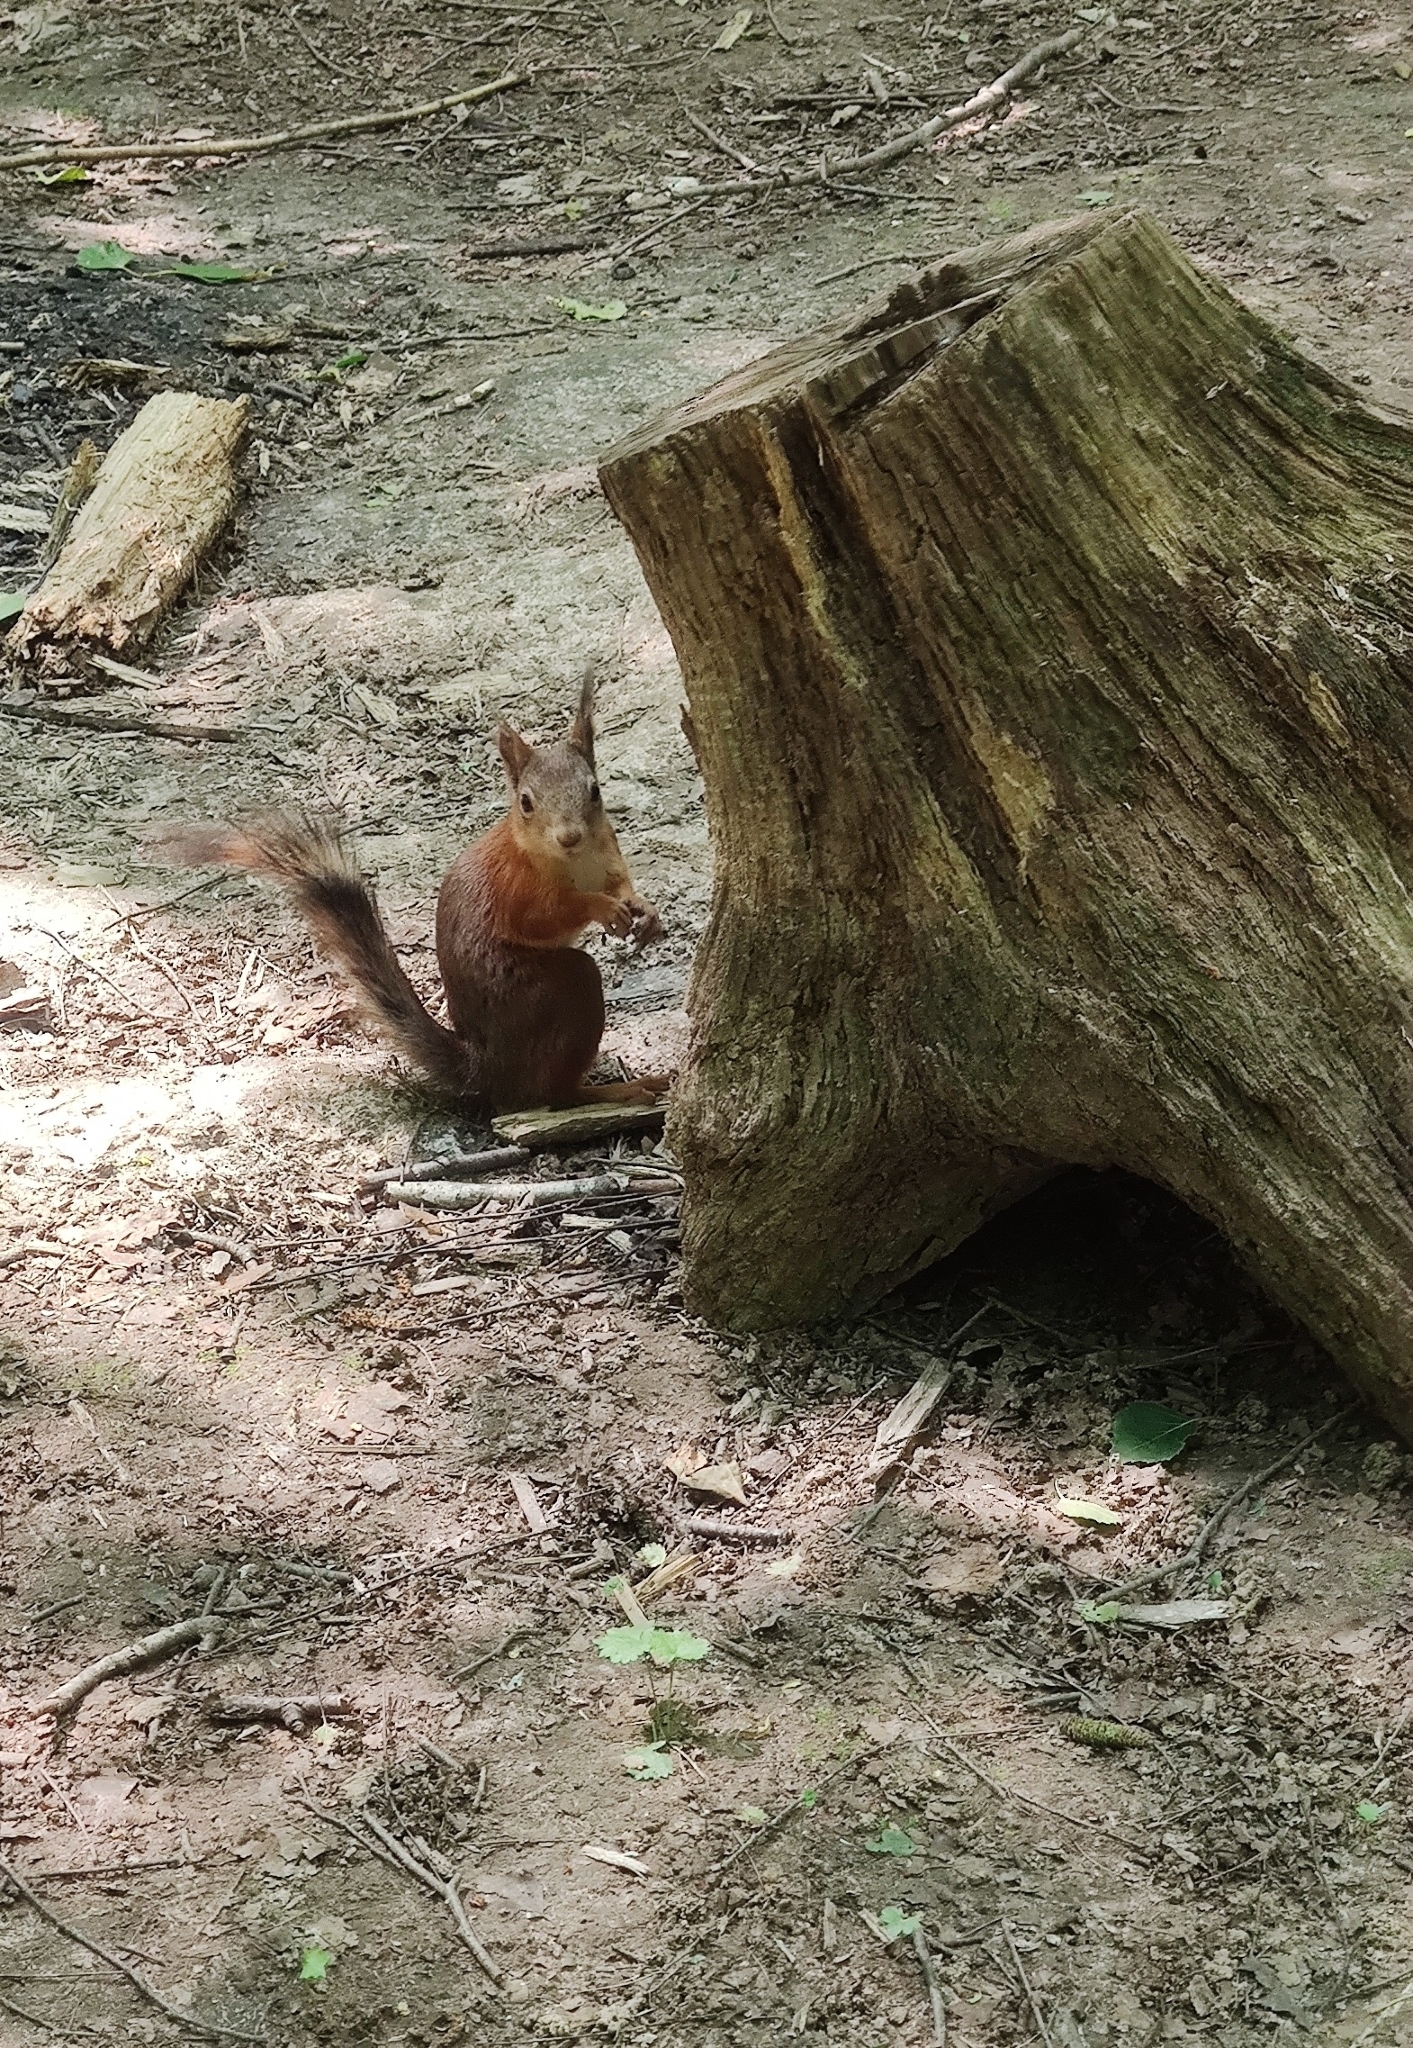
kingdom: Animalia
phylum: Chordata
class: Mammalia
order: Rodentia
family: Sciuridae
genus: Sciurus
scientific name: Sciurus vulgaris
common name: Eurasian red squirrel
